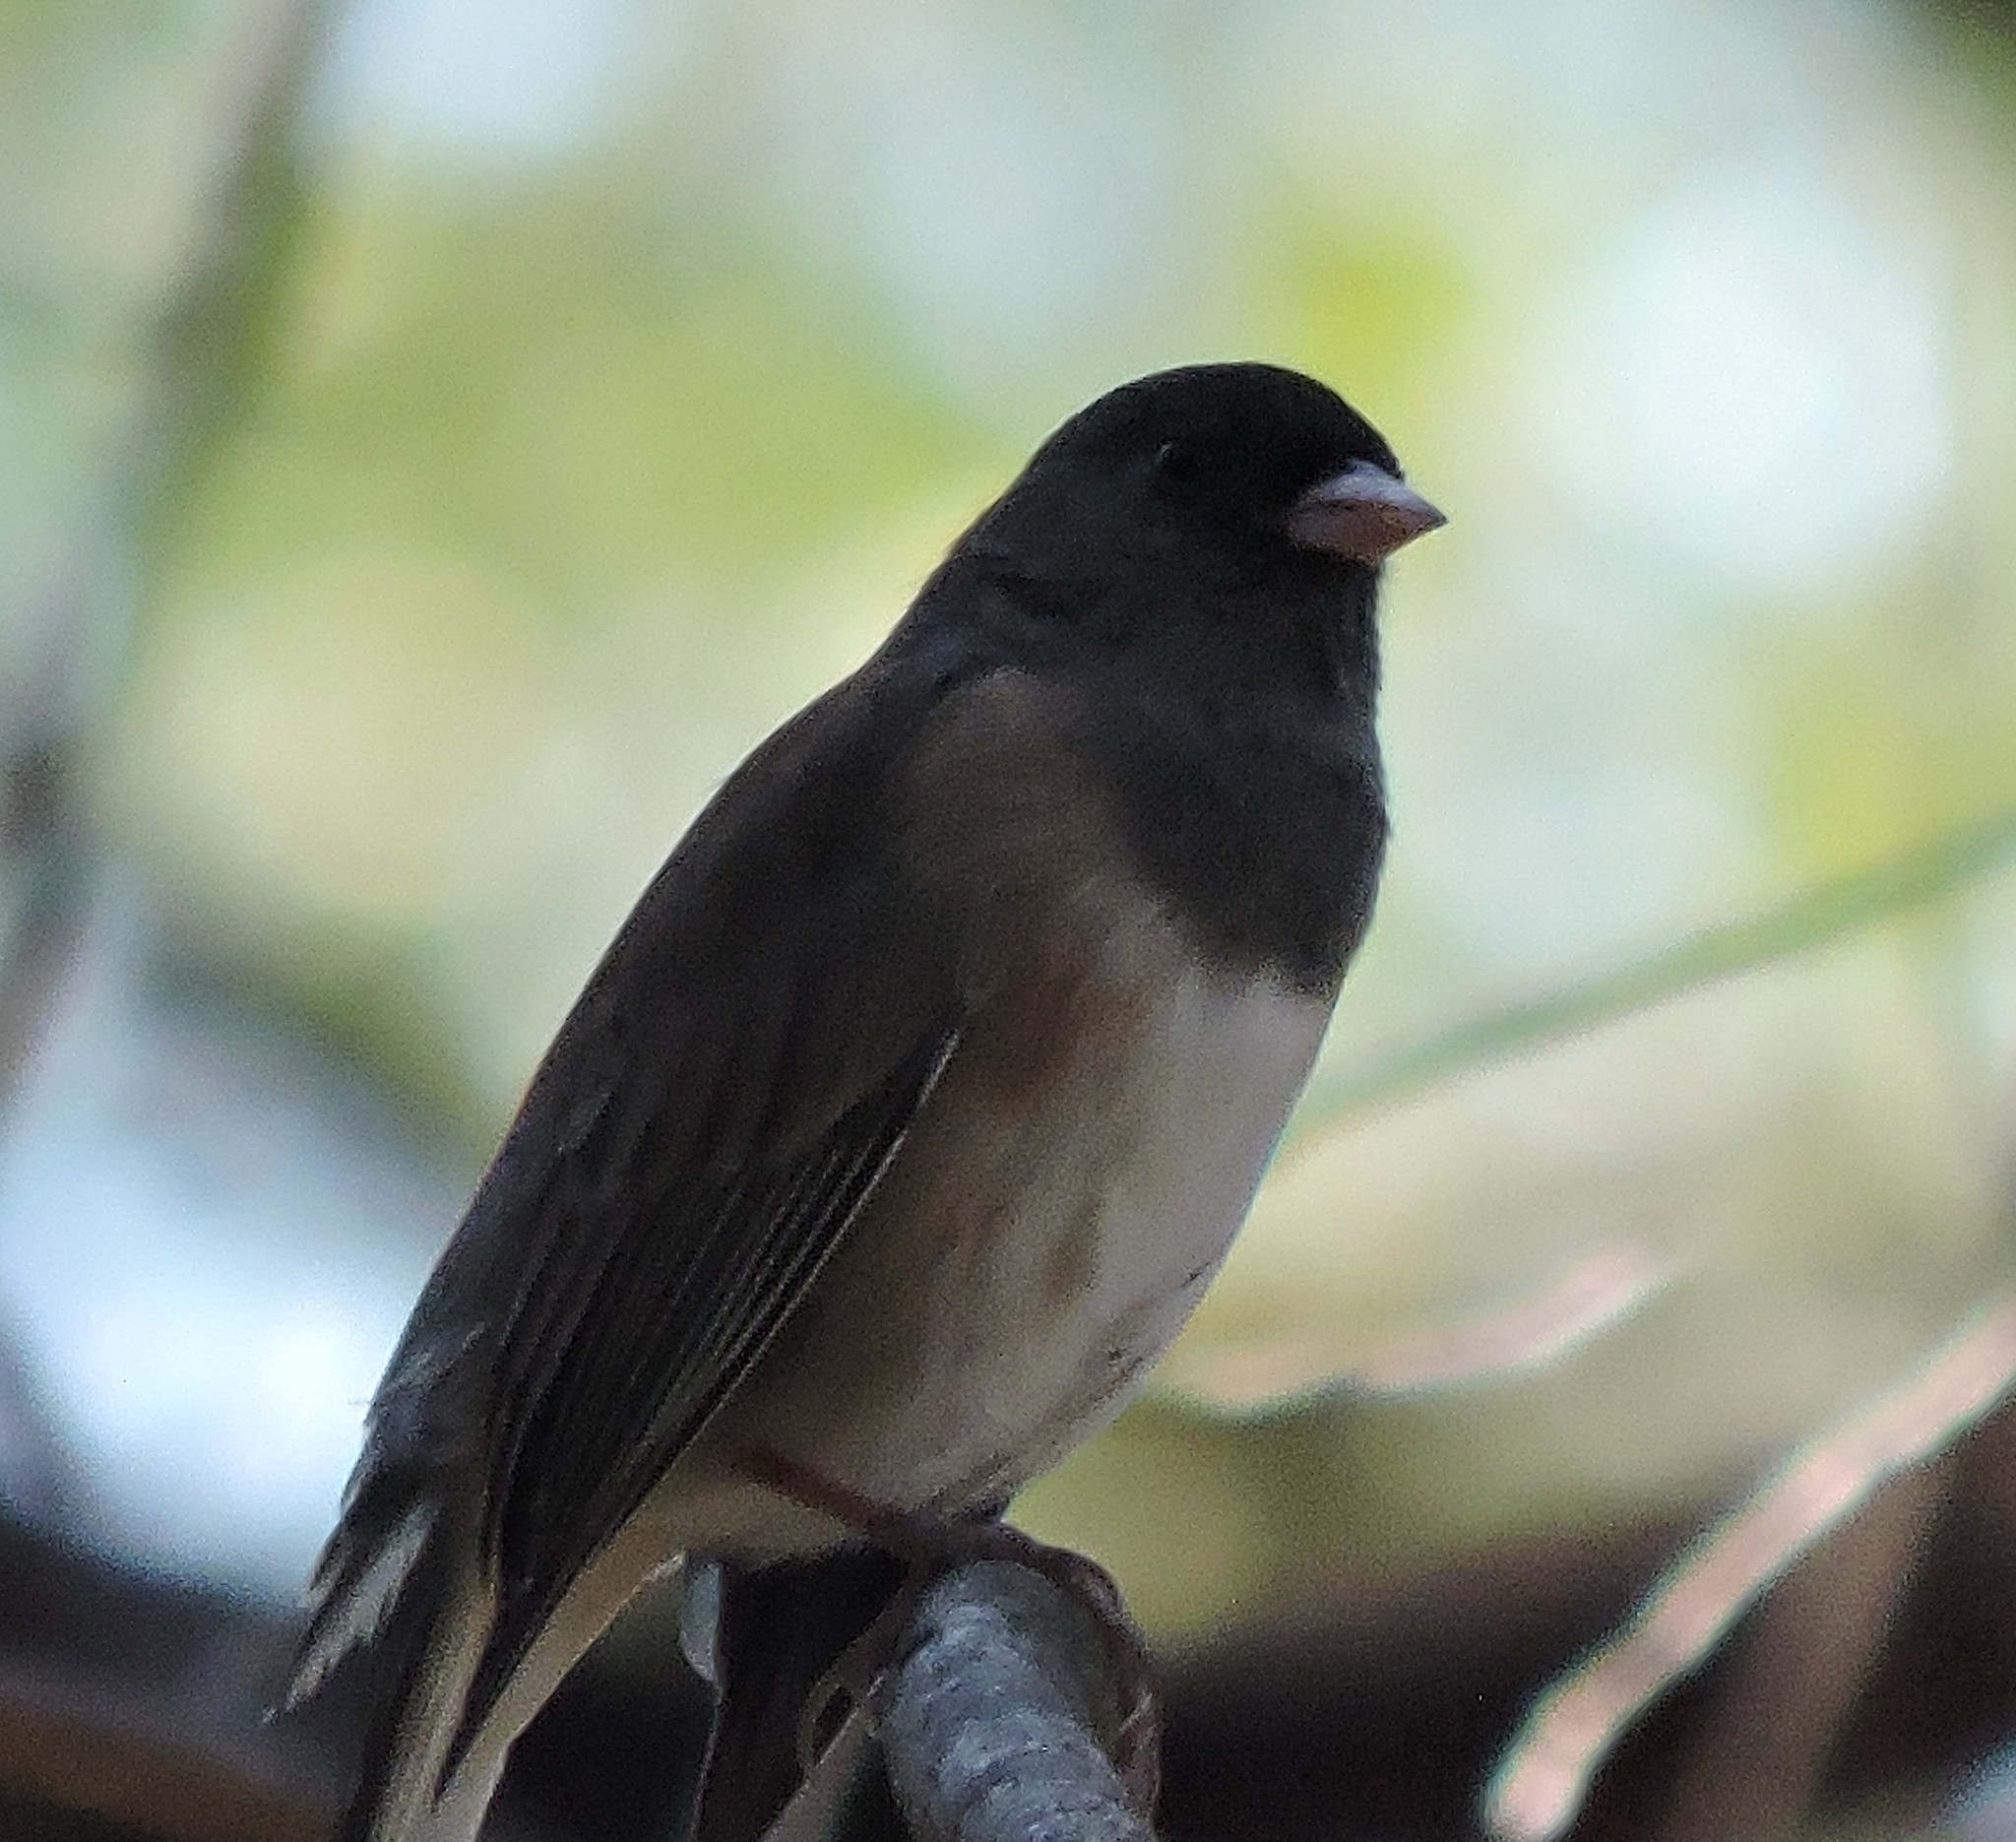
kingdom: Animalia
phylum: Chordata
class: Aves
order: Passeriformes
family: Passerellidae
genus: Junco
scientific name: Junco hyemalis
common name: Dark-eyed junco
